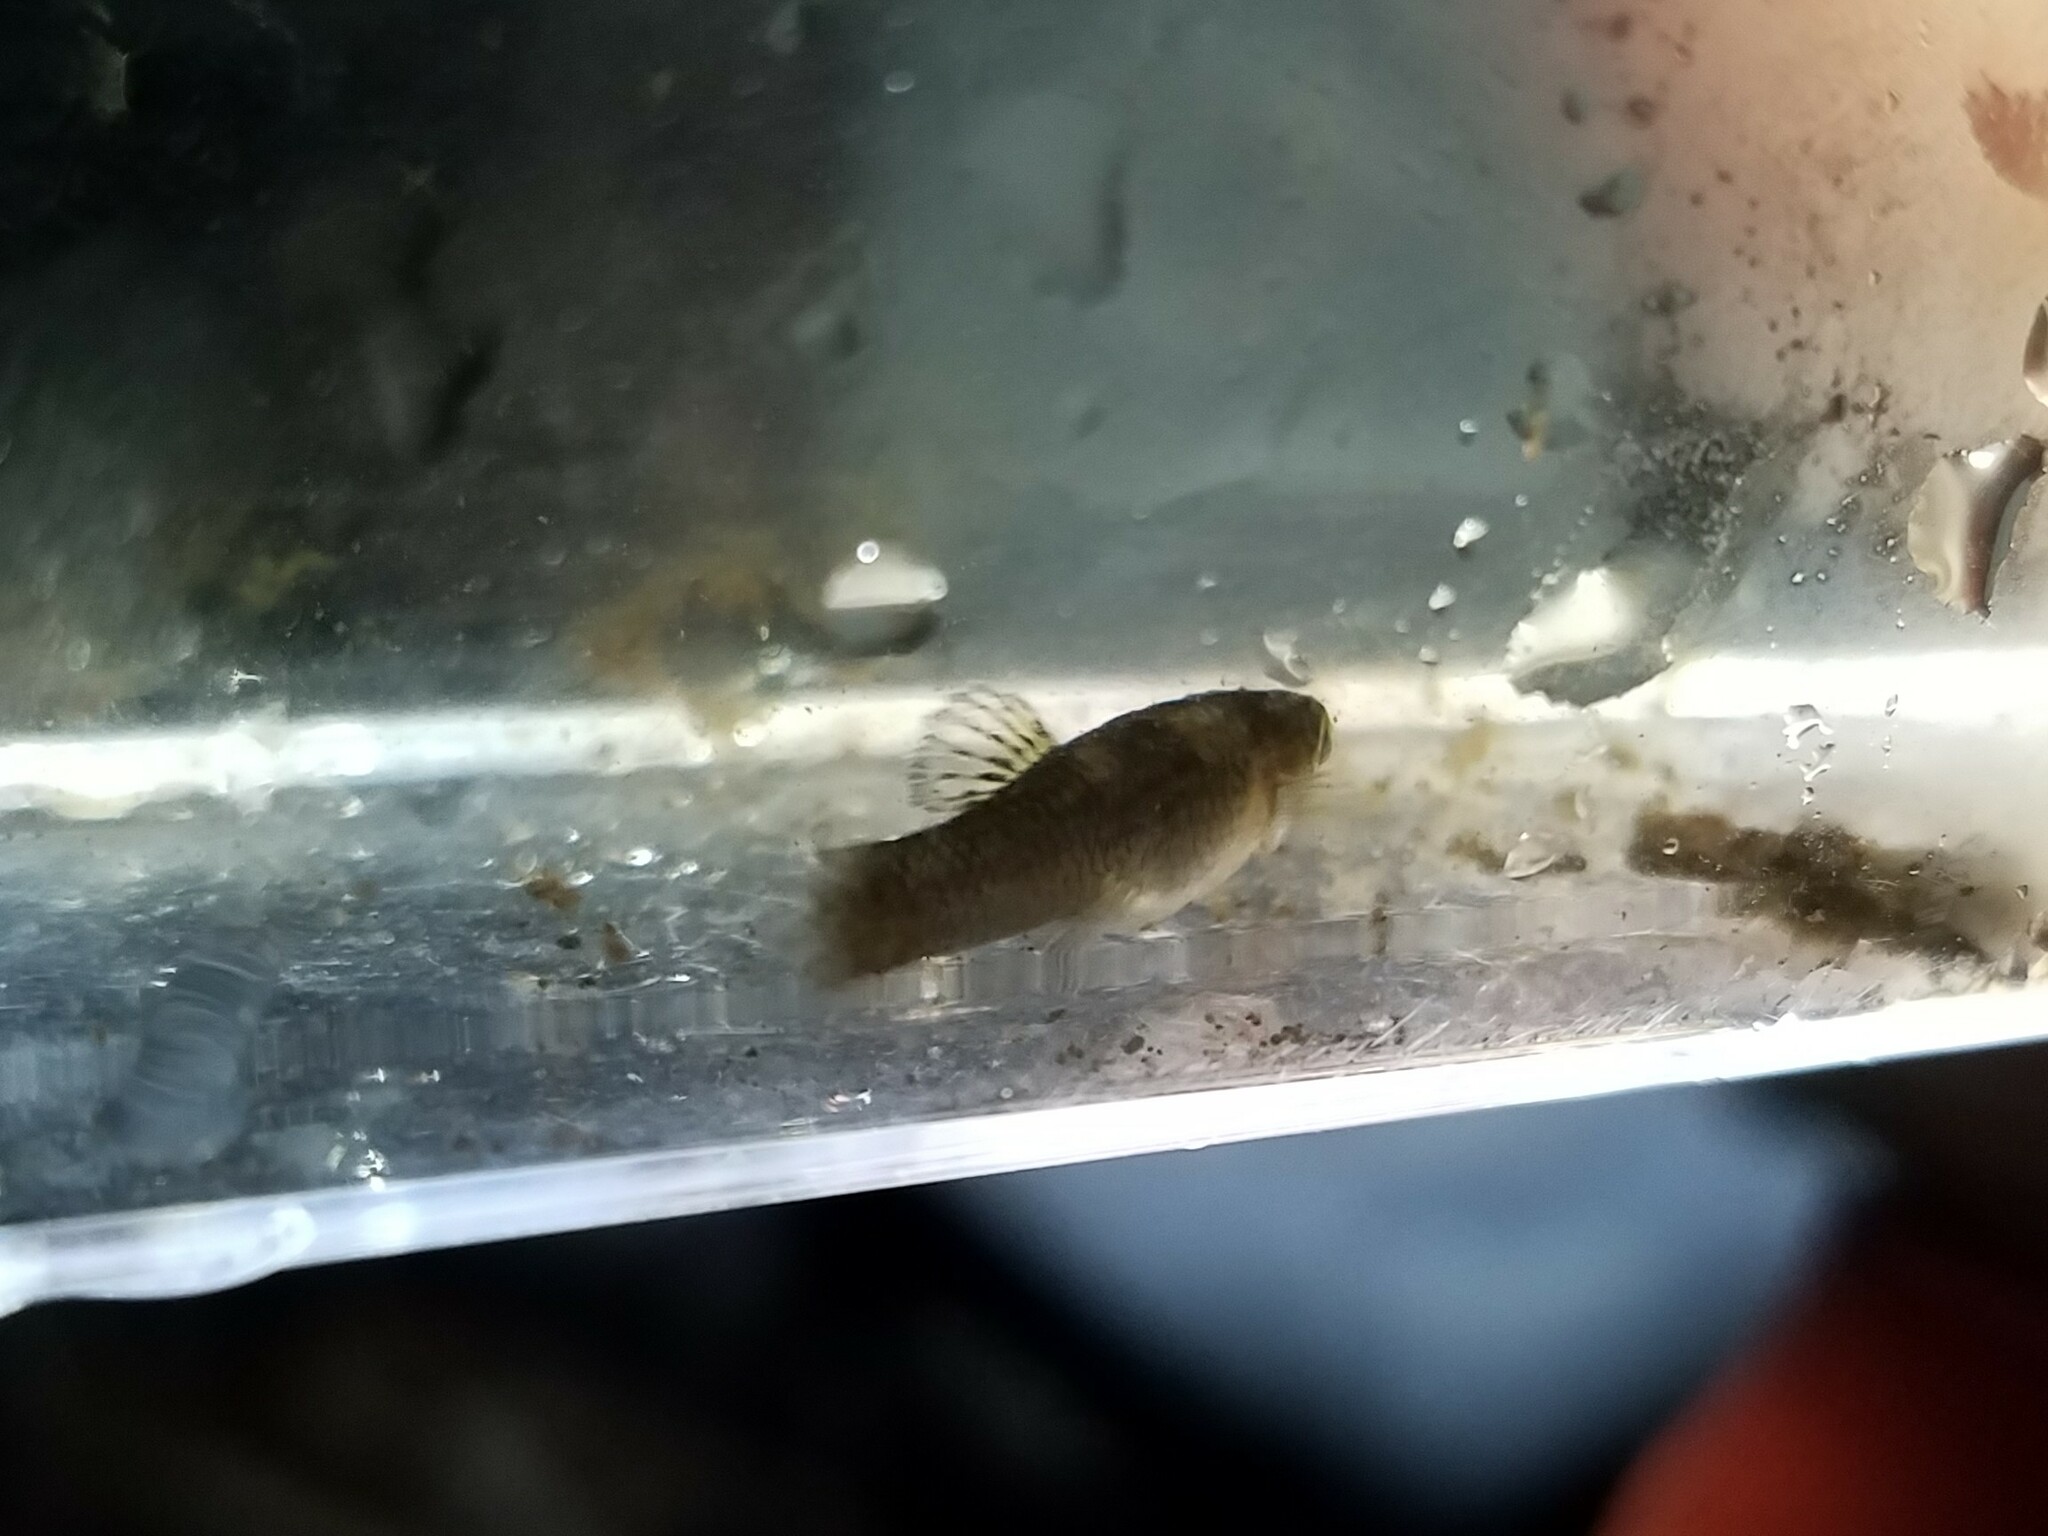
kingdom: Animalia
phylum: Chordata
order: Cyprinodontiformes
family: Poeciliidae
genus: Gambusia
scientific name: Gambusia holbrooki
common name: Eastern mosquitofish
